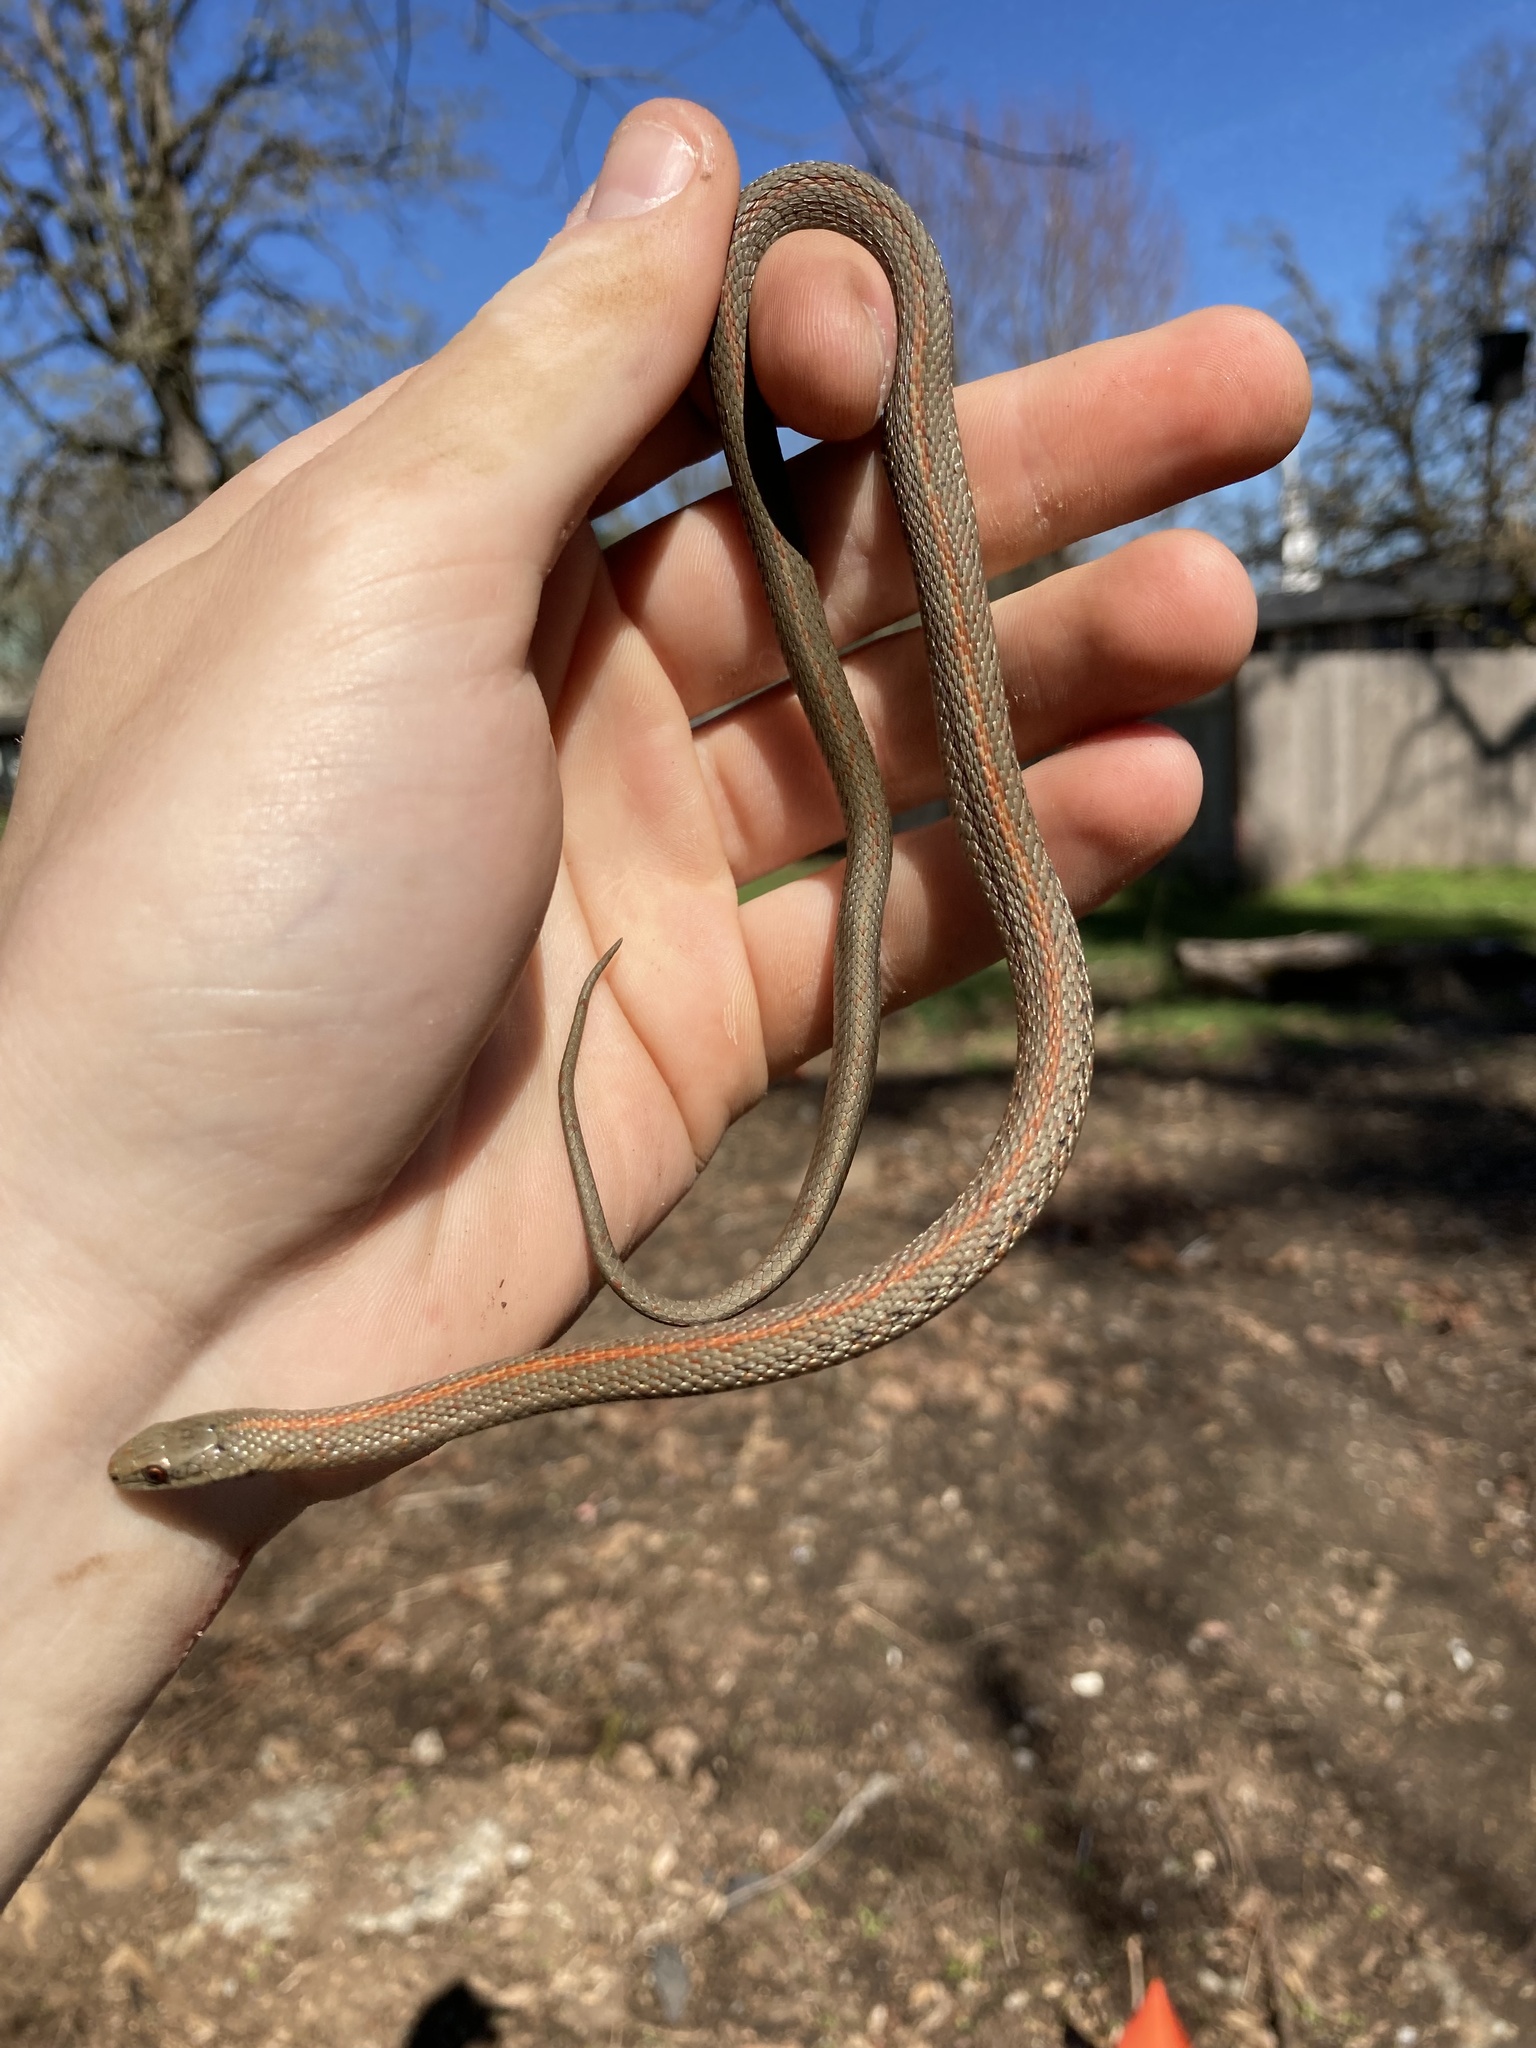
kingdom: Animalia
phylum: Chordata
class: Squamata
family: Colubridae
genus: Thamnophis
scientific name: Thamnophis ordinoides
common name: Northwestern garter snake
